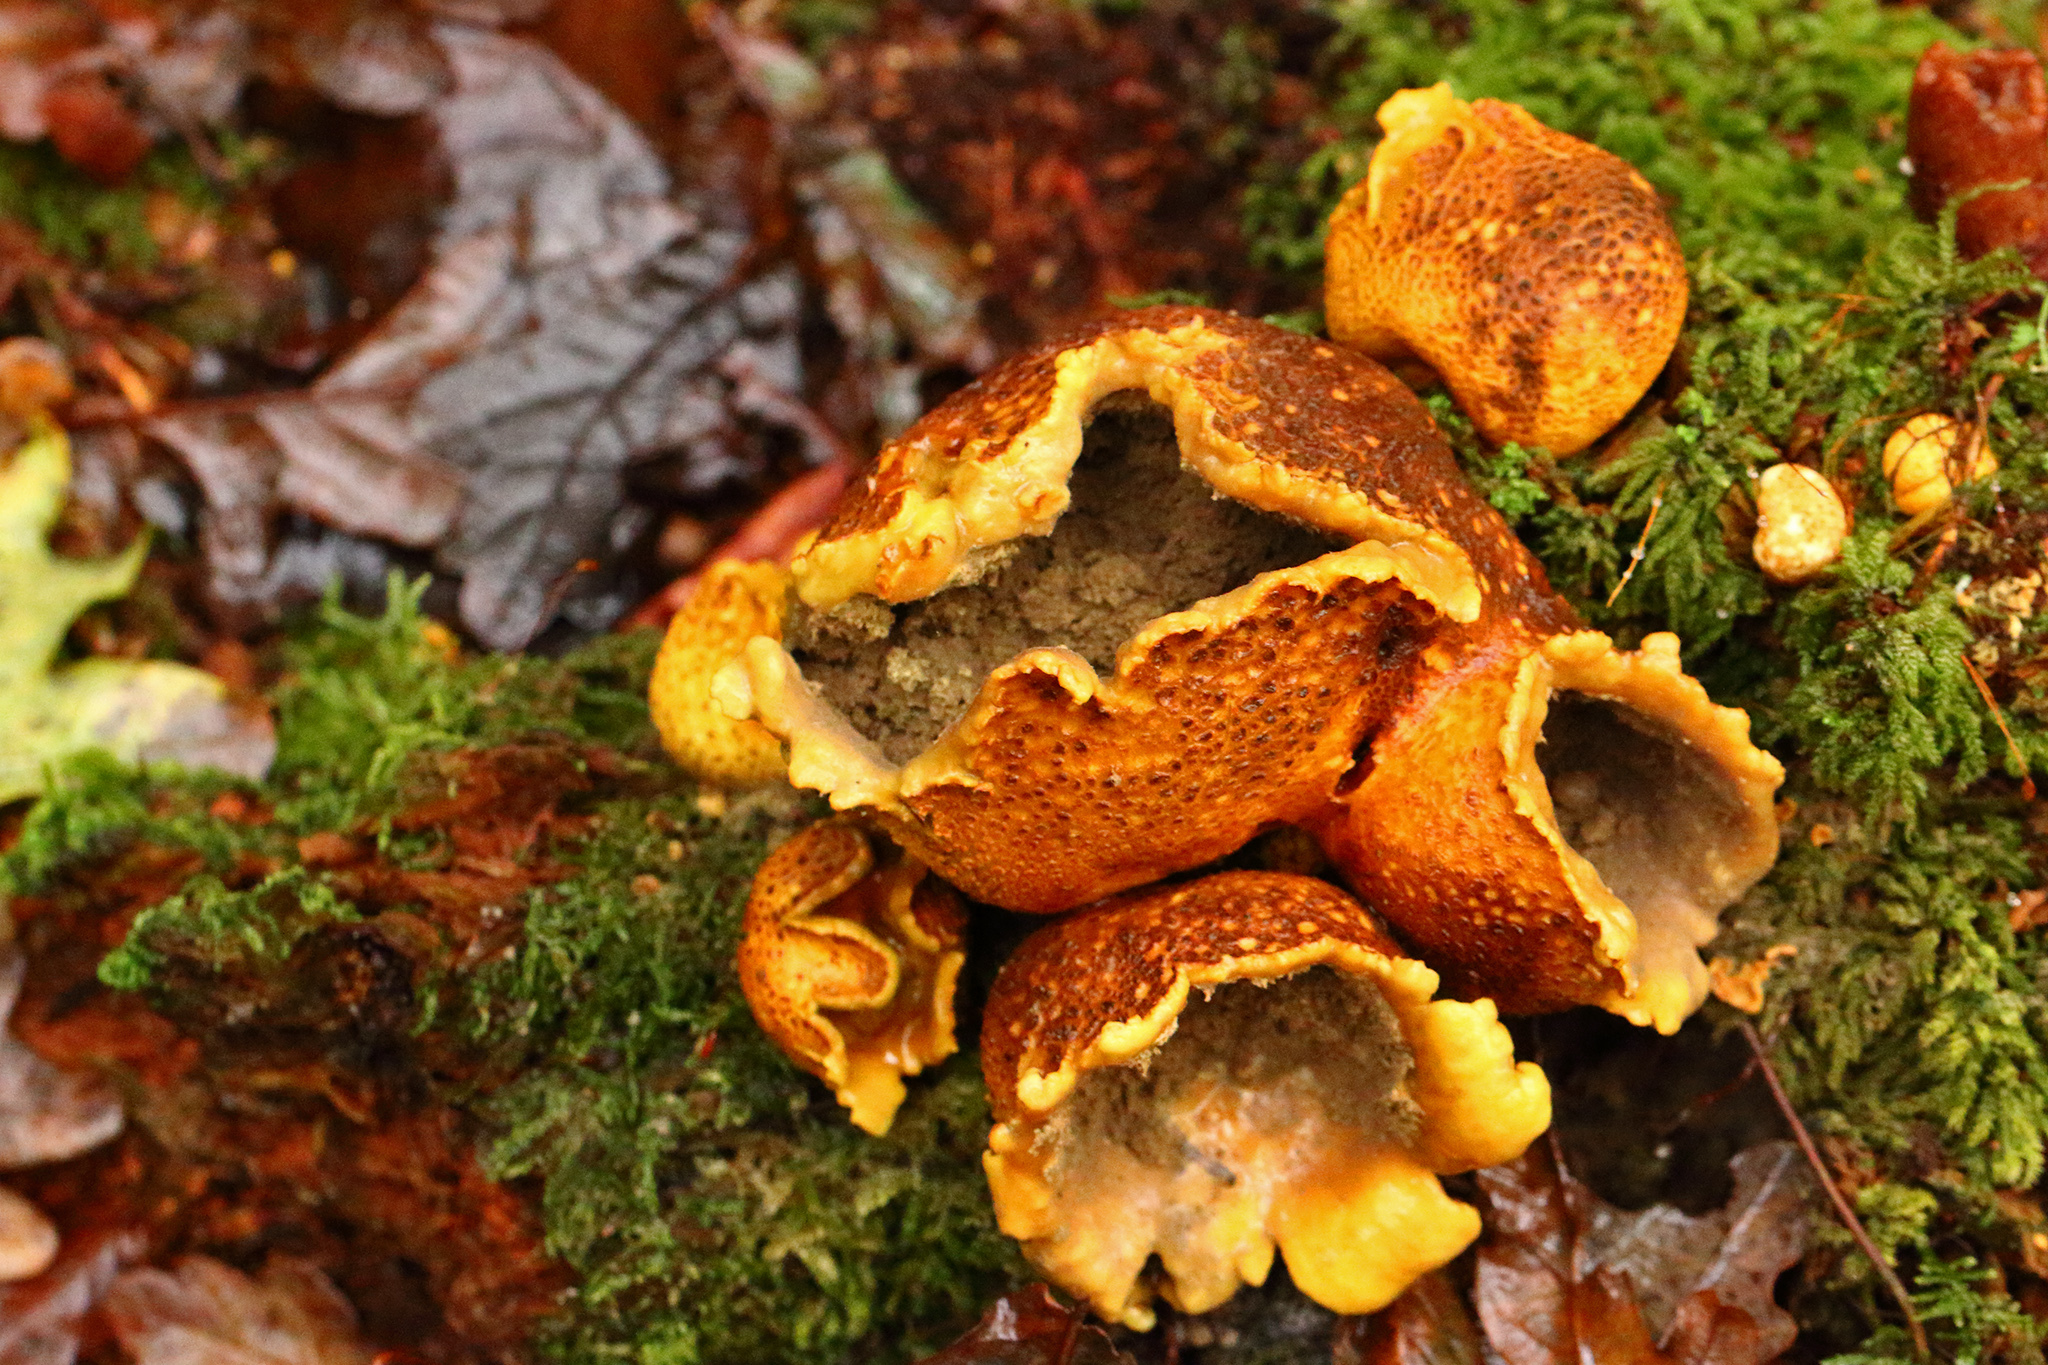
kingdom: Fungi
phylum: Basidiomycota
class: Agaricomycetes
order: Boletales
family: Sclerodermataceae
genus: Scleroderma
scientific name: Scleroderma citrinum
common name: Common earthball
